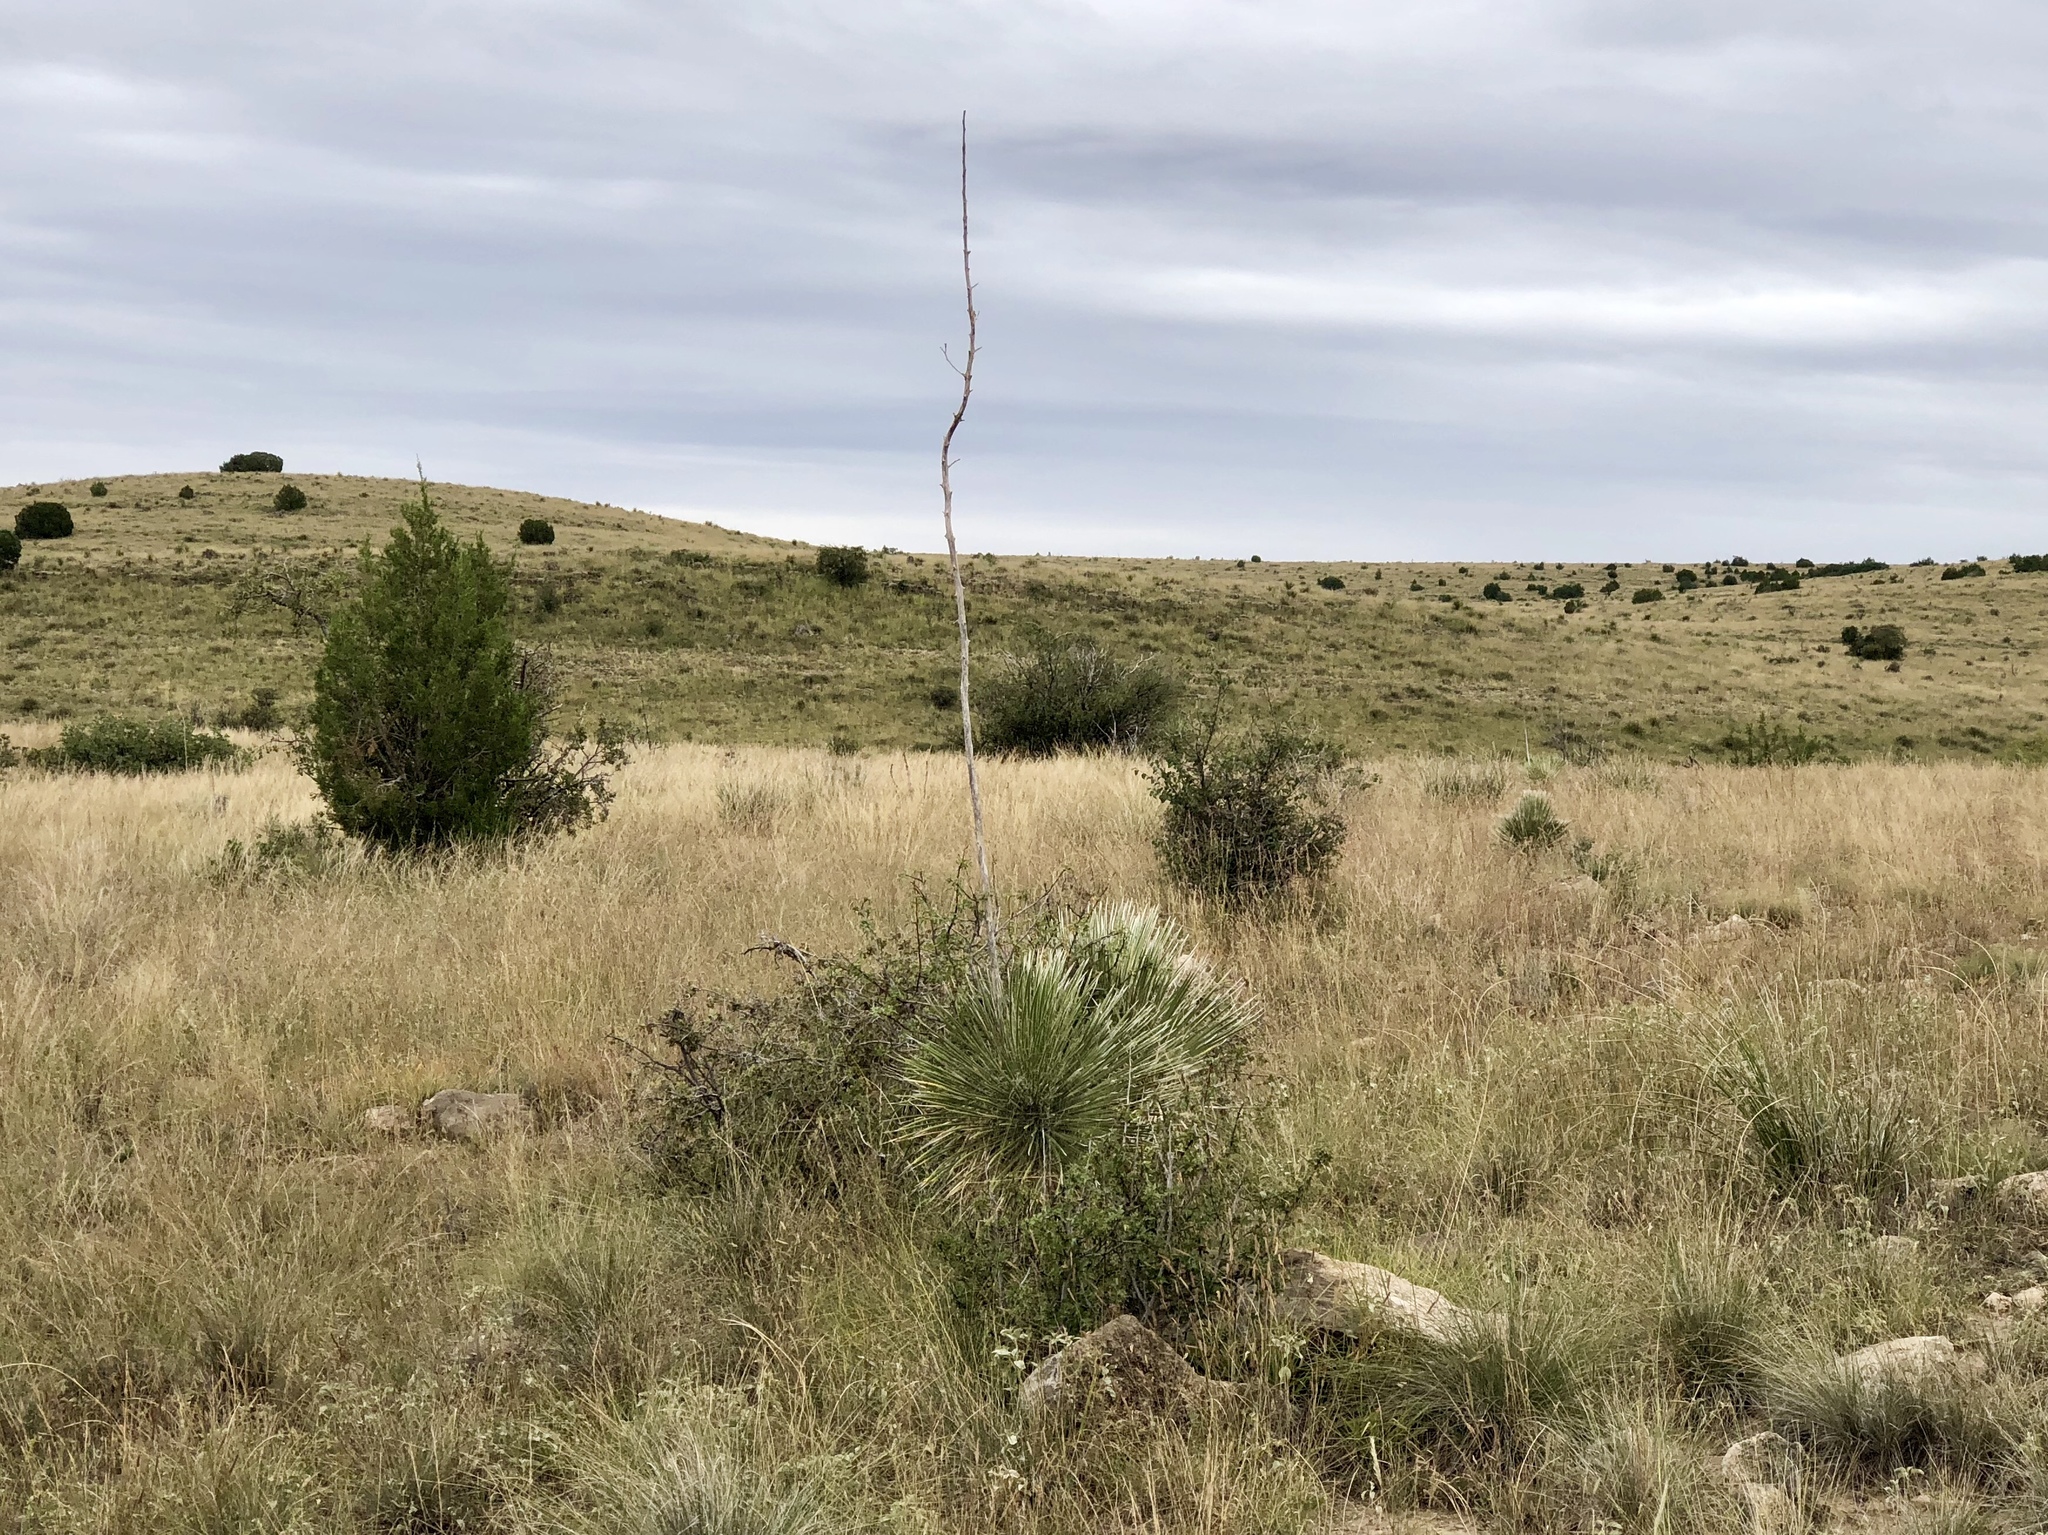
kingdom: Plantae
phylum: Tracheophyta
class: Liliopsida
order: Asparagales
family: Asparagaceae
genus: Yucca
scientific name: Yucca elata
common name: Palmella
